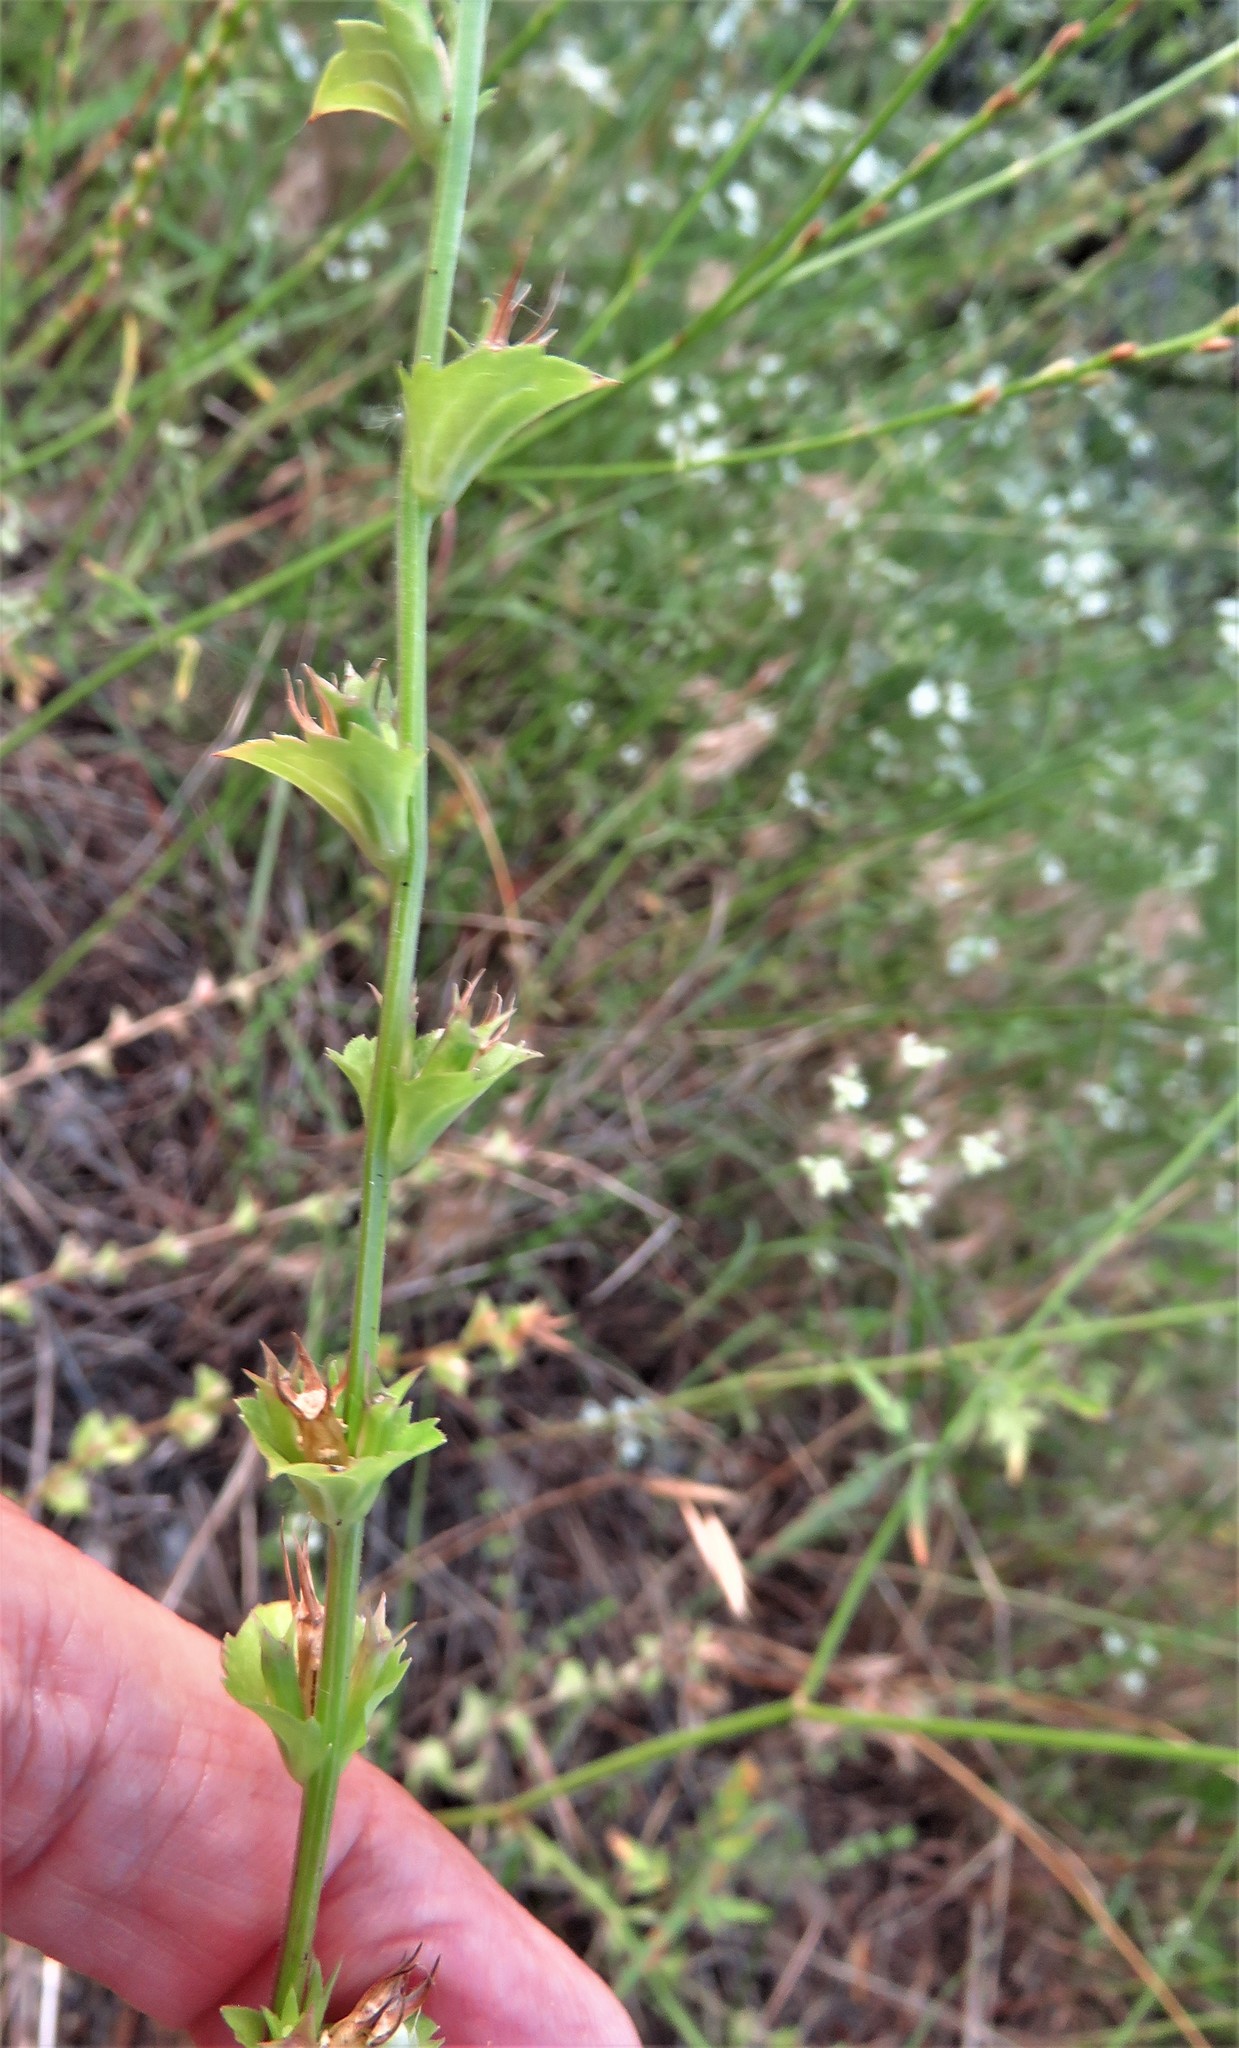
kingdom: Plantae
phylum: Tracheophyta
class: Magnoliopsida
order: Asterales
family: Campanulaceae
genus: Triodanis
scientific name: Triodanis perfoliata
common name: Clasping venus' looking-glass
